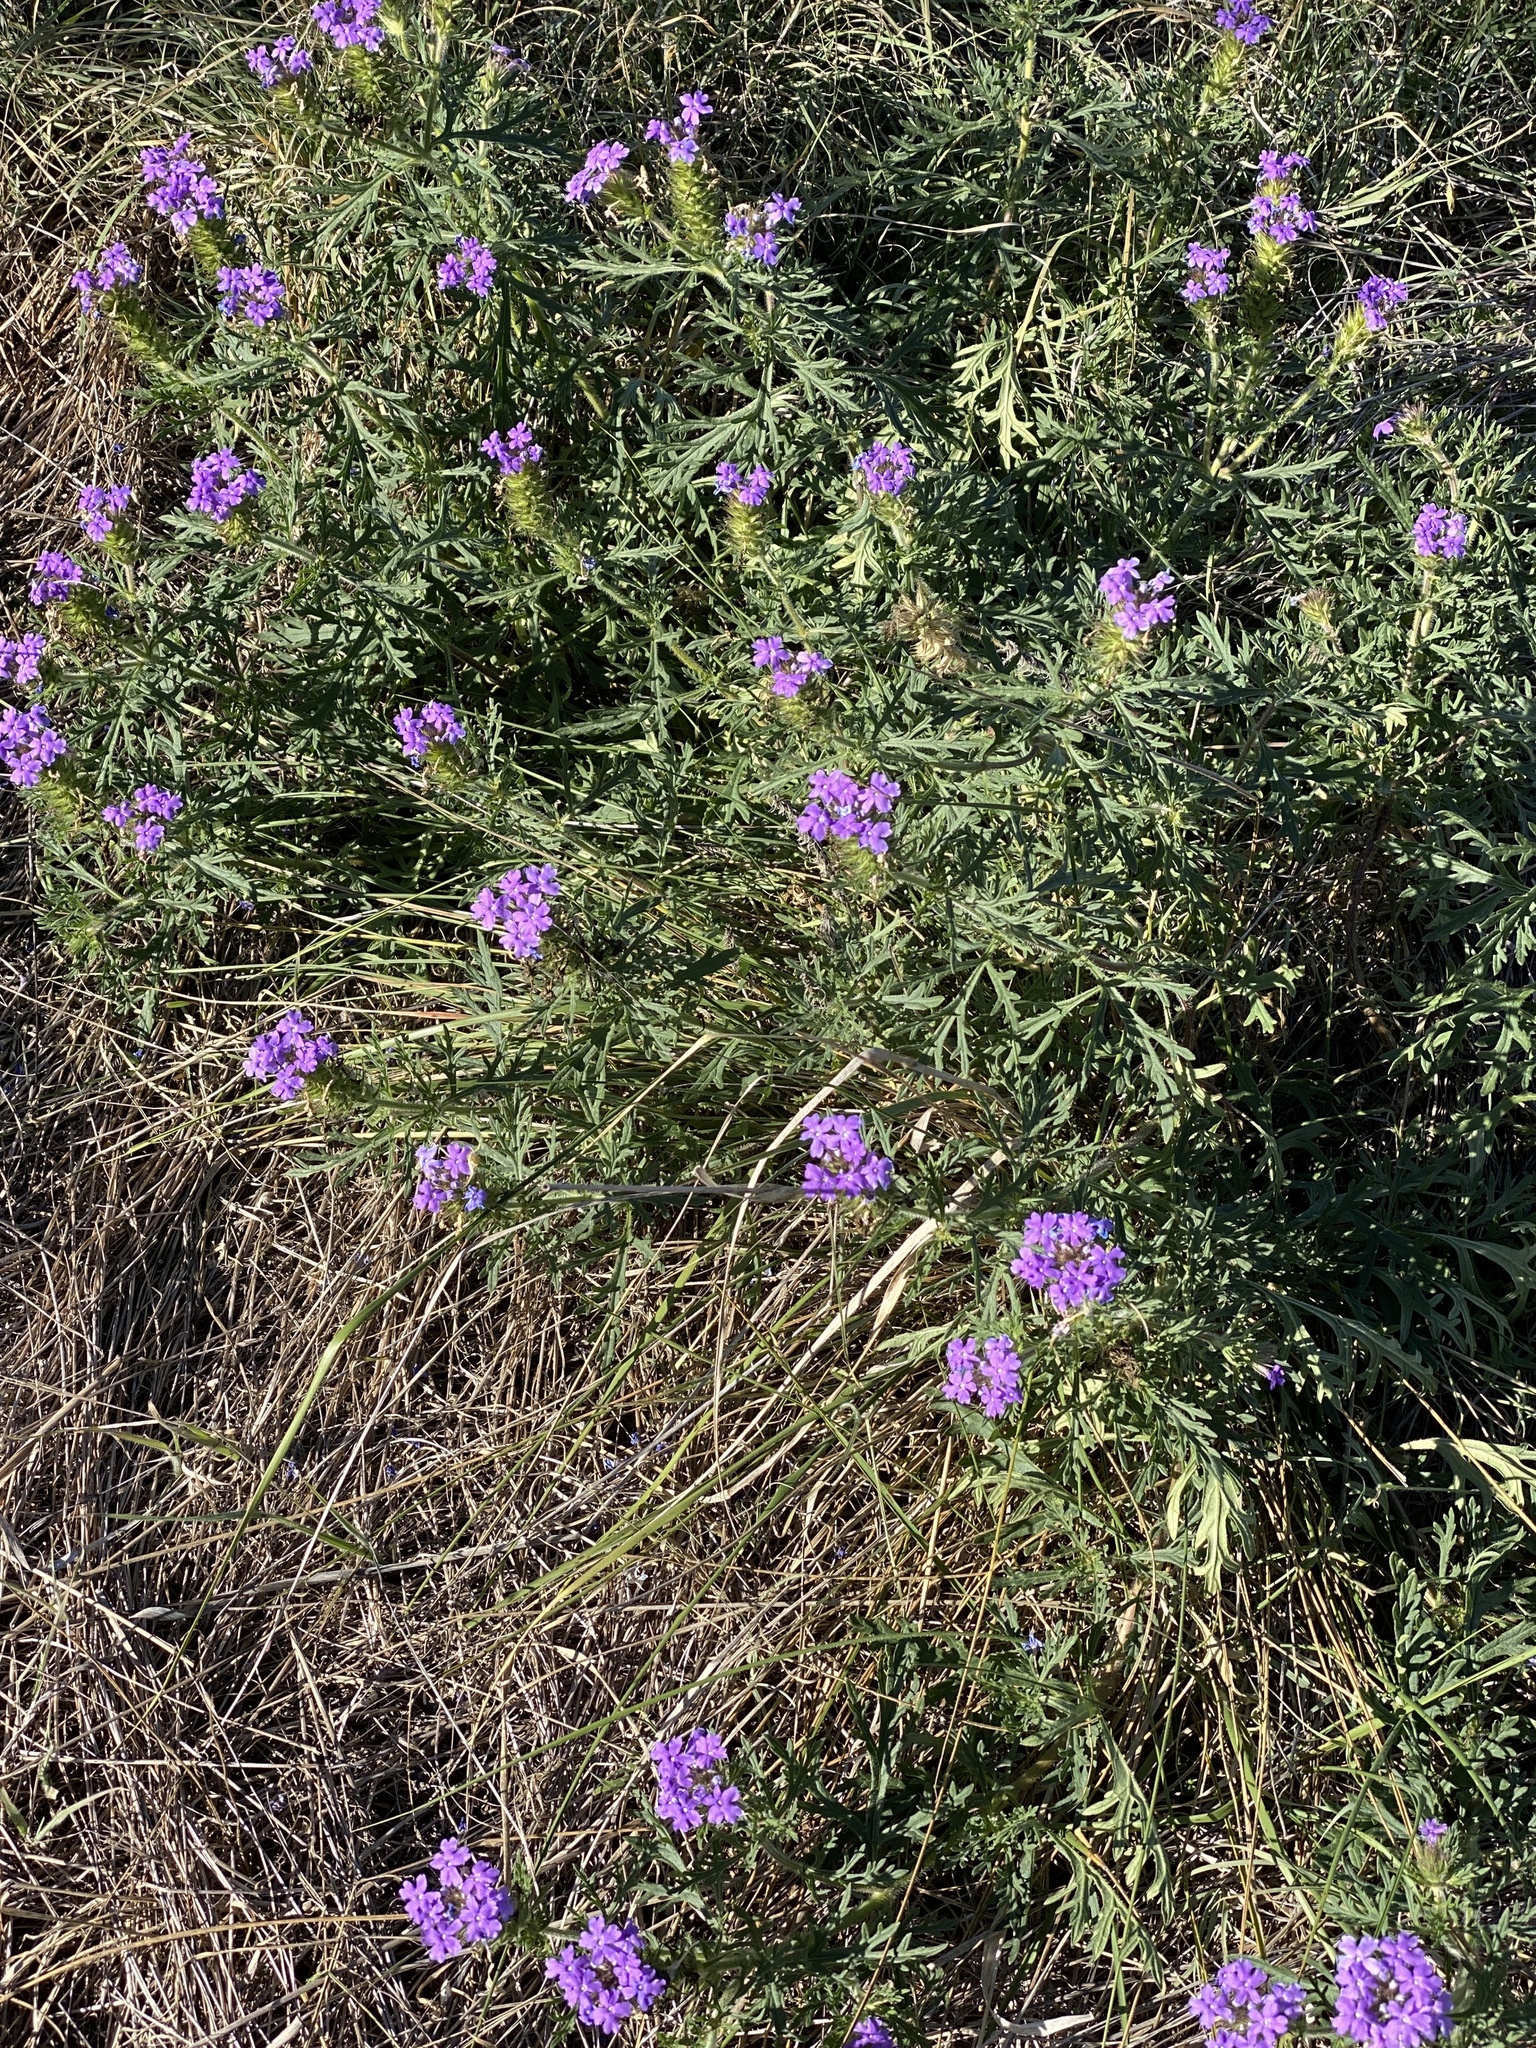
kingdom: Plantae
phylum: Tracheophyta
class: Magnoliopsida
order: Lamiales
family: Verbenaceae
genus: Verbena
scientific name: Verbena bipinnatifida
